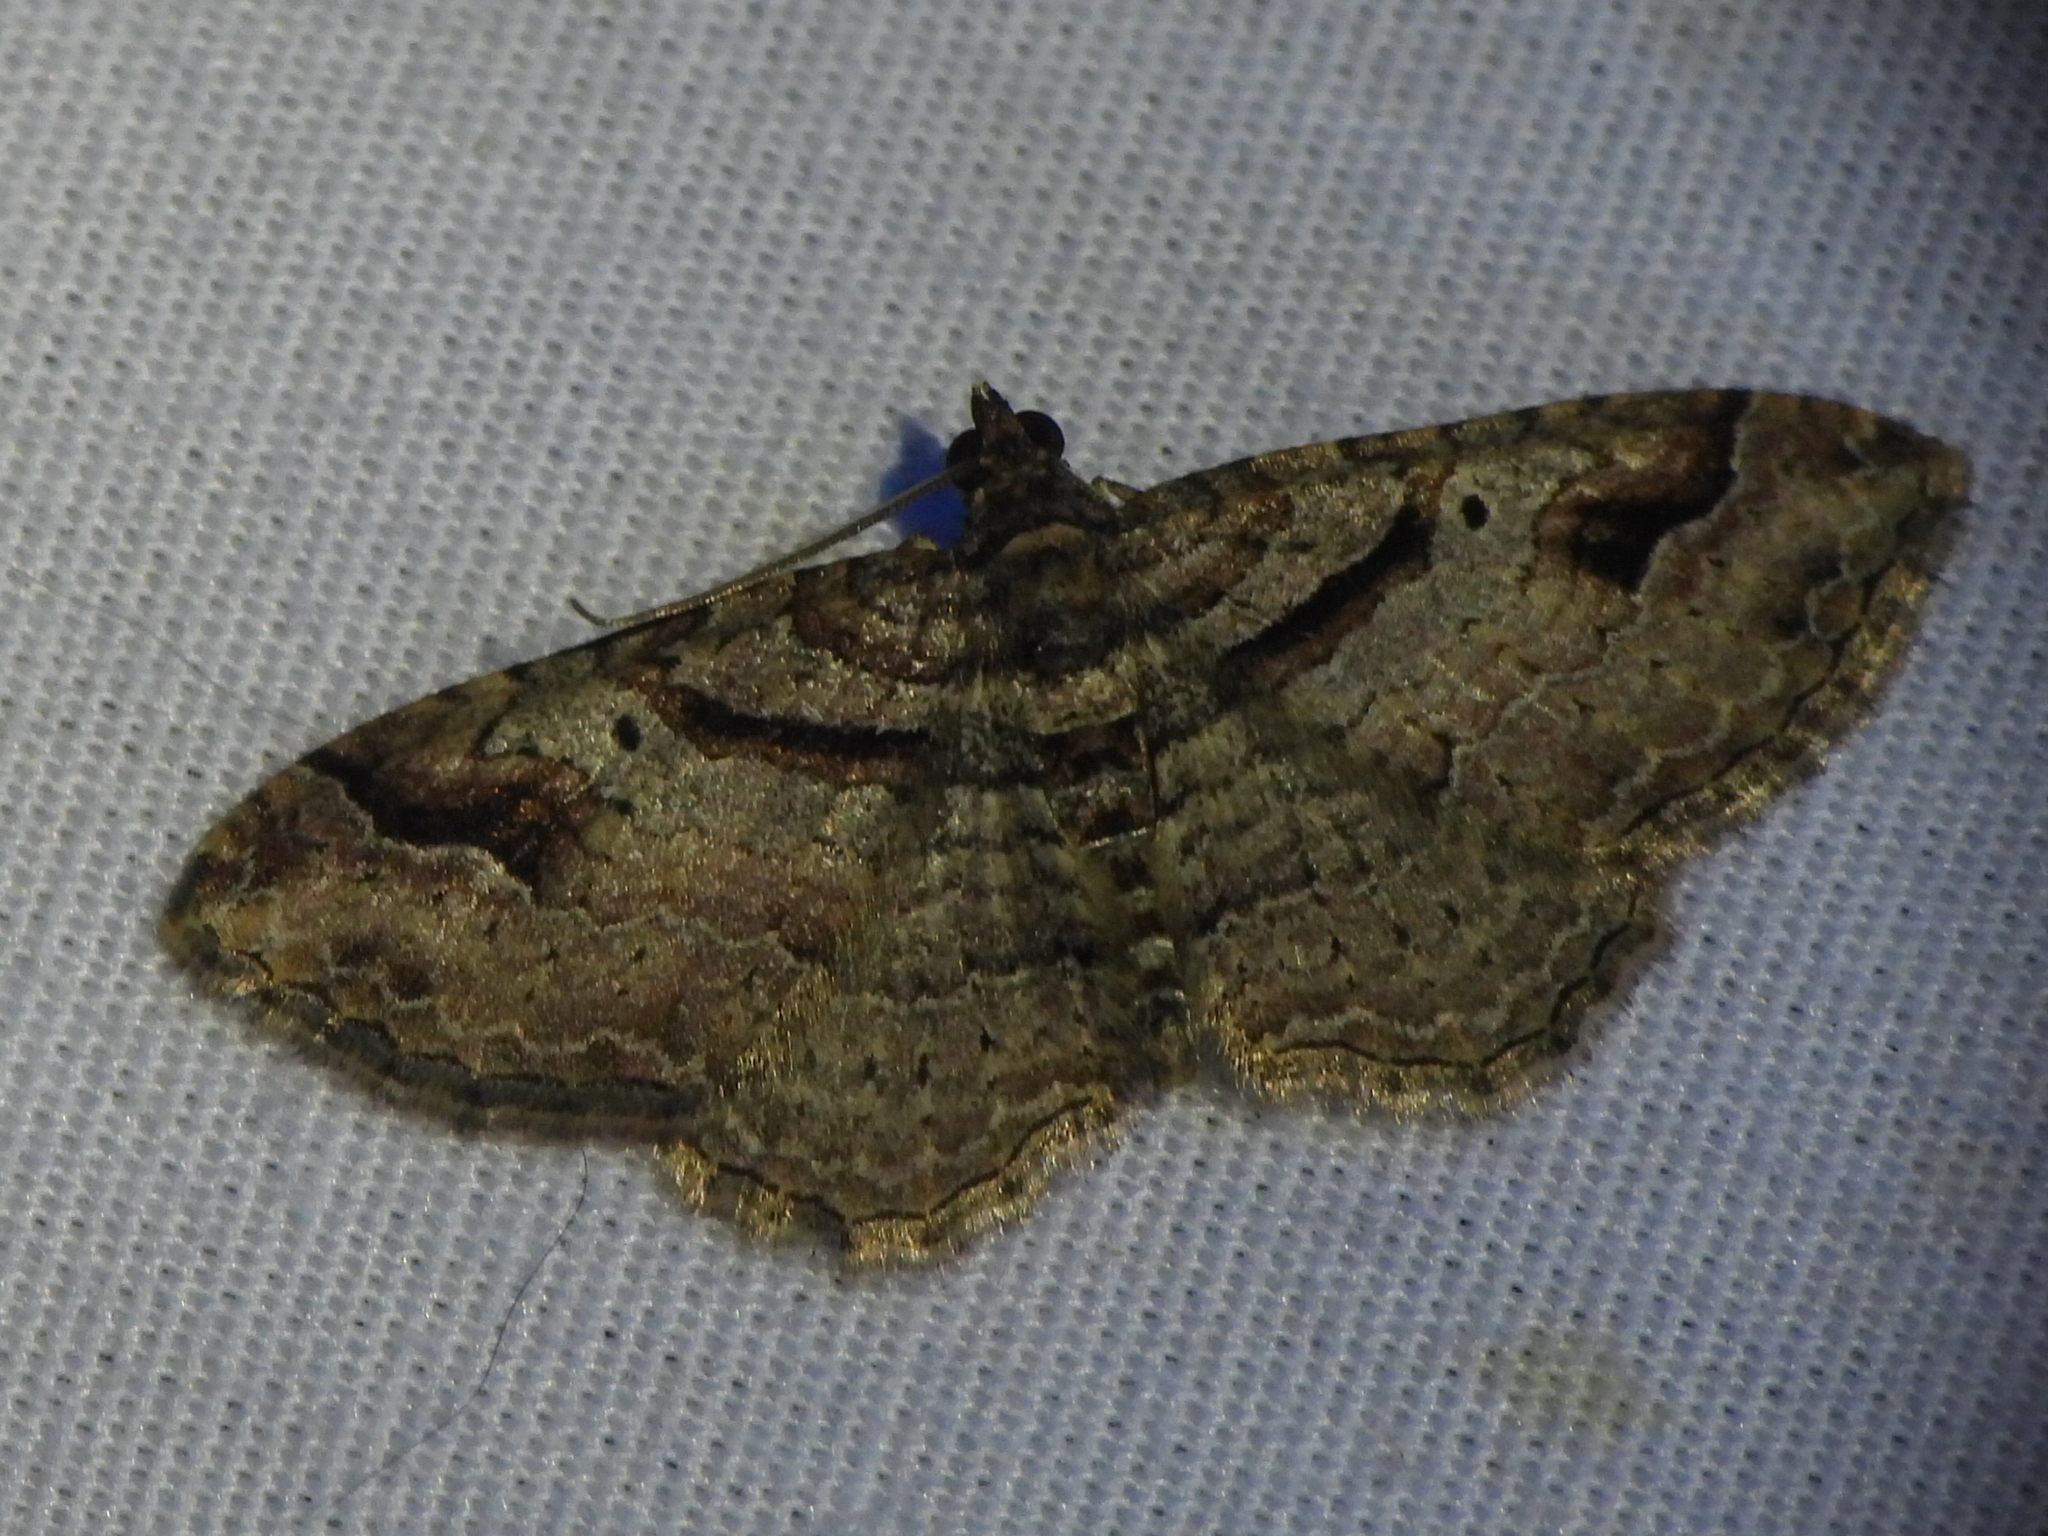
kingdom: Animalia
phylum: Arthropoda
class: Insecta
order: Lepidoptera
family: Geometridae
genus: Costaconvexa
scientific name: Costaconvexa centrostrigaria
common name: Bent-line carpet
